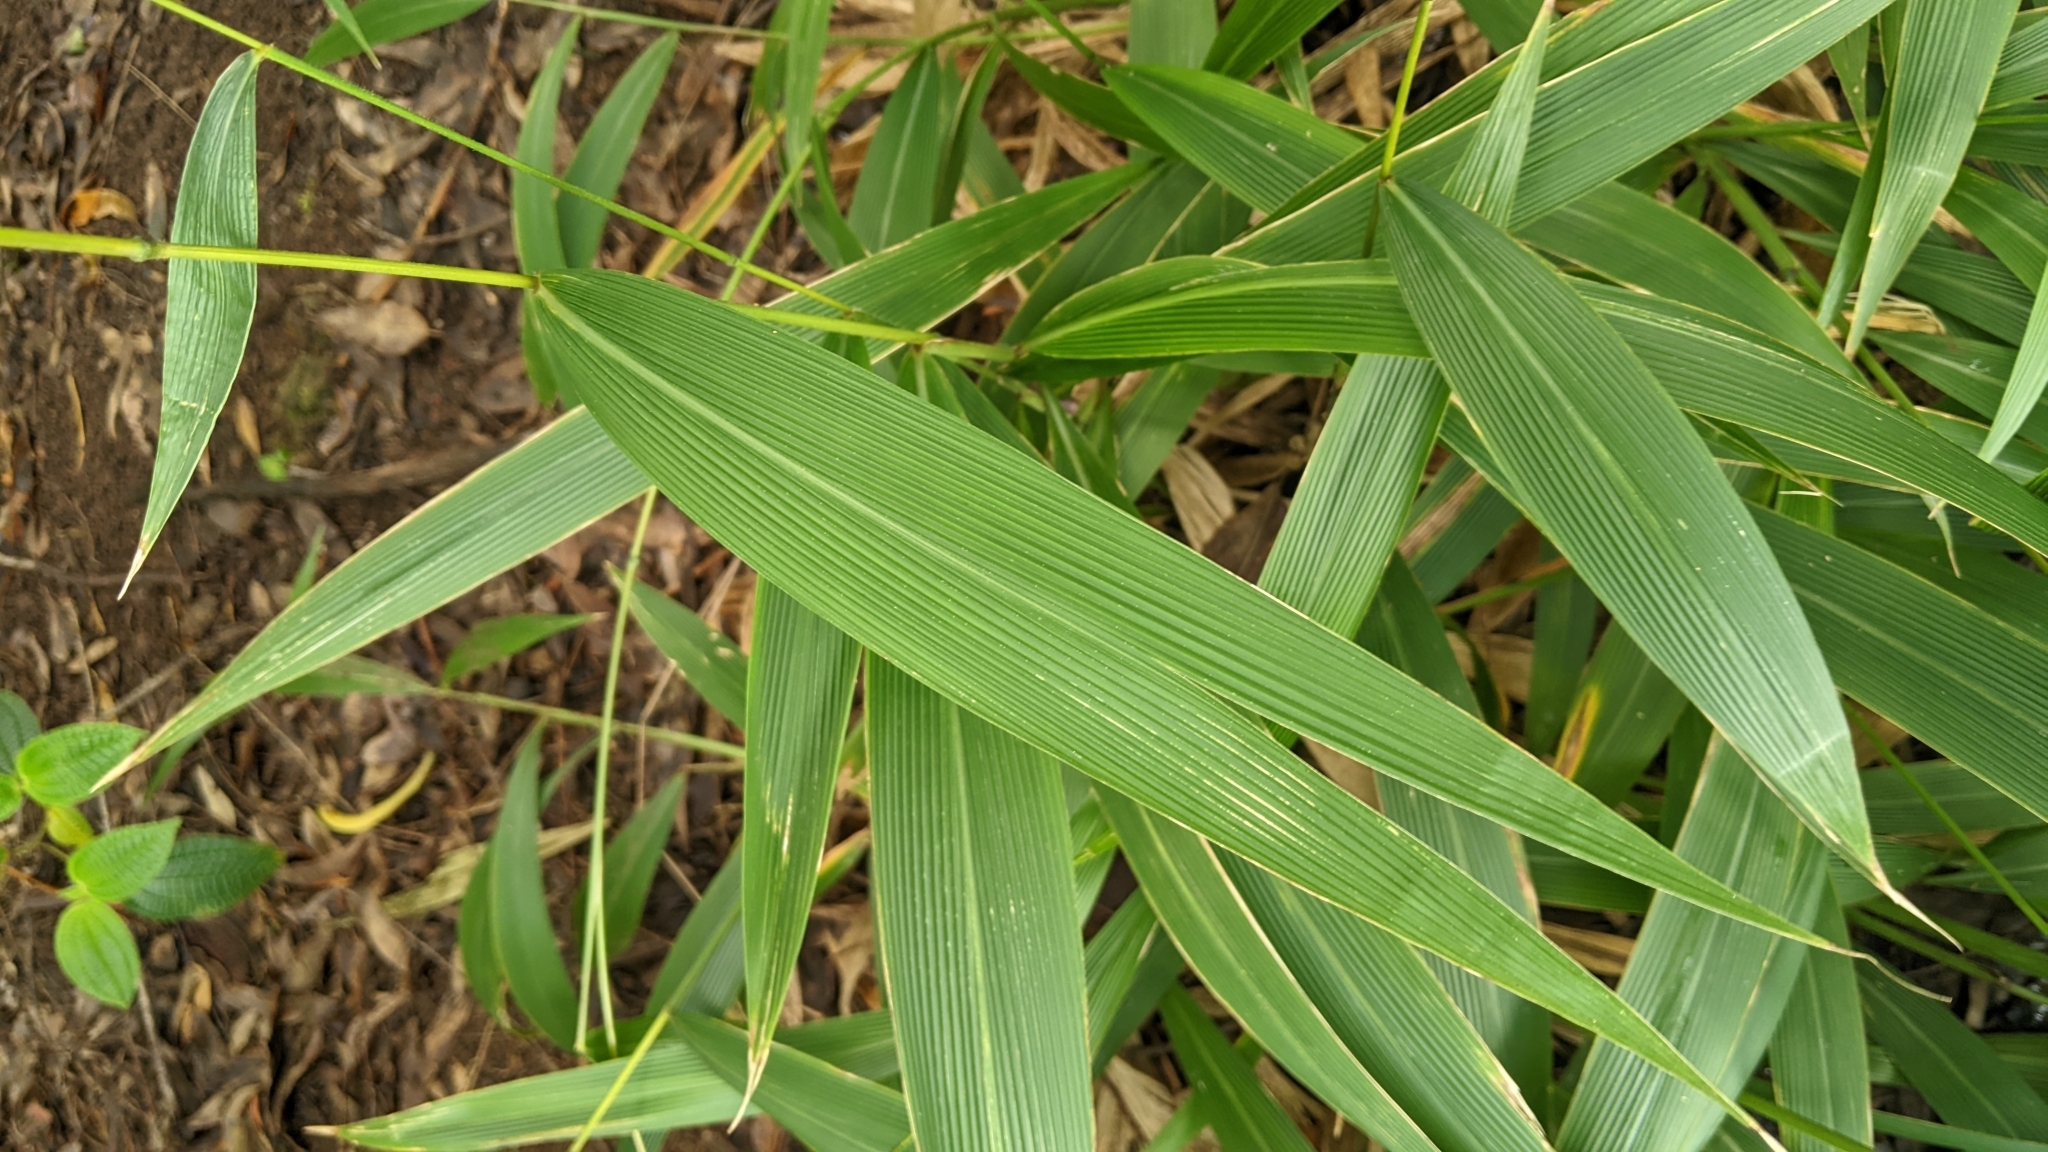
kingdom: Plantae
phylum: Tracheophyta
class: Liliopsida
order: Poales
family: Poaceae
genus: Setaria
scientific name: Setaria palmifolia
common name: Broadleaved bristlegrass
